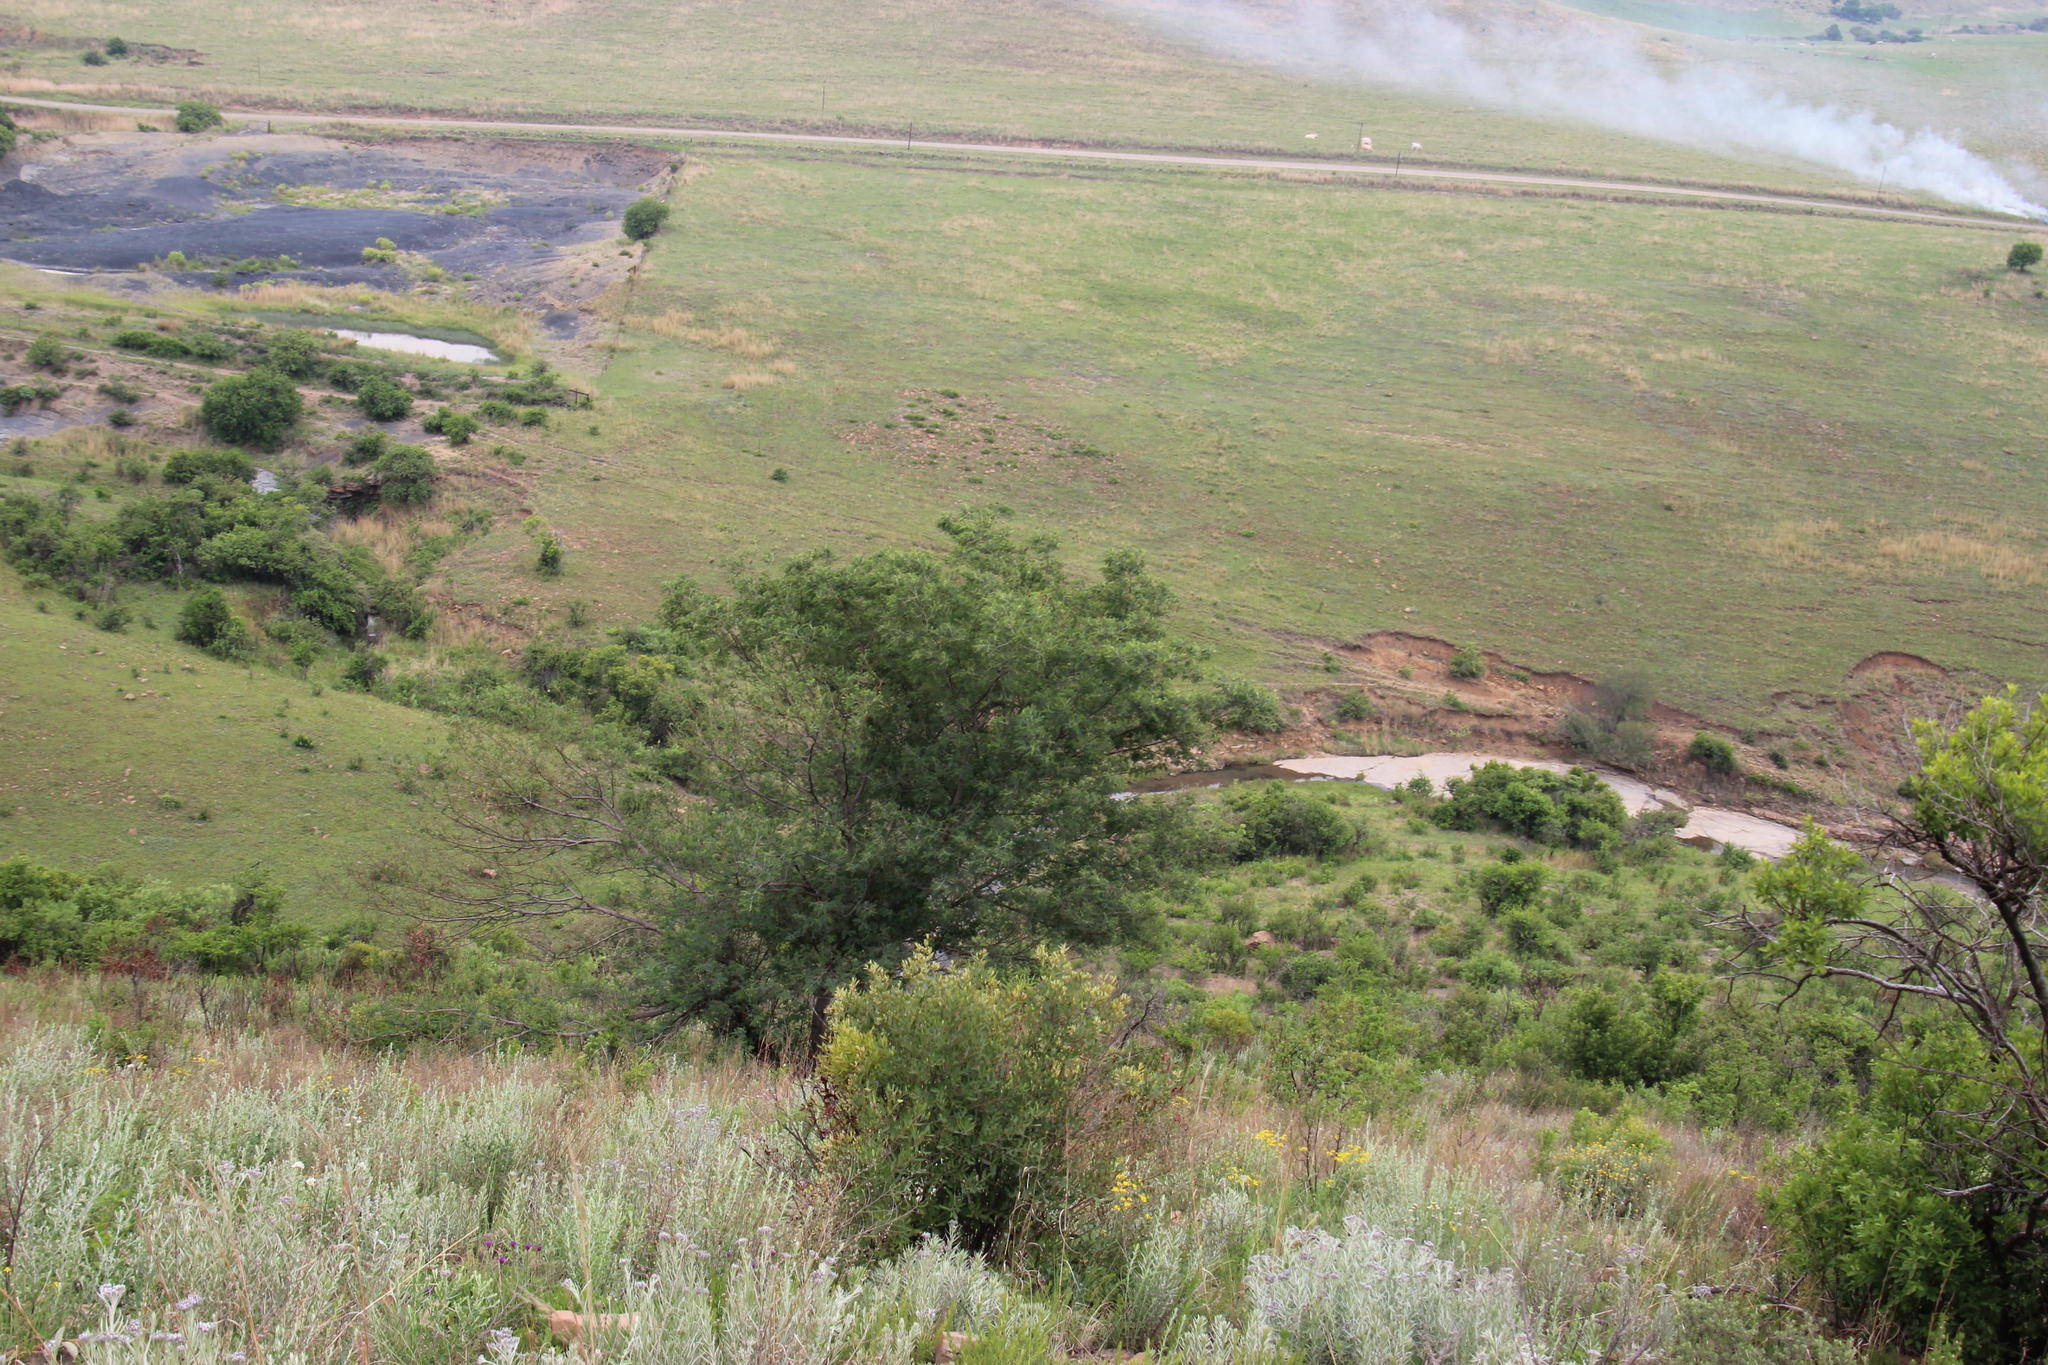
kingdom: Plantae
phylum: Tracheophyta
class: Magnoliopsida
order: Fabales
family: Fabaceae
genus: Acacia
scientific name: Acacia mearnsii
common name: Black wattle
